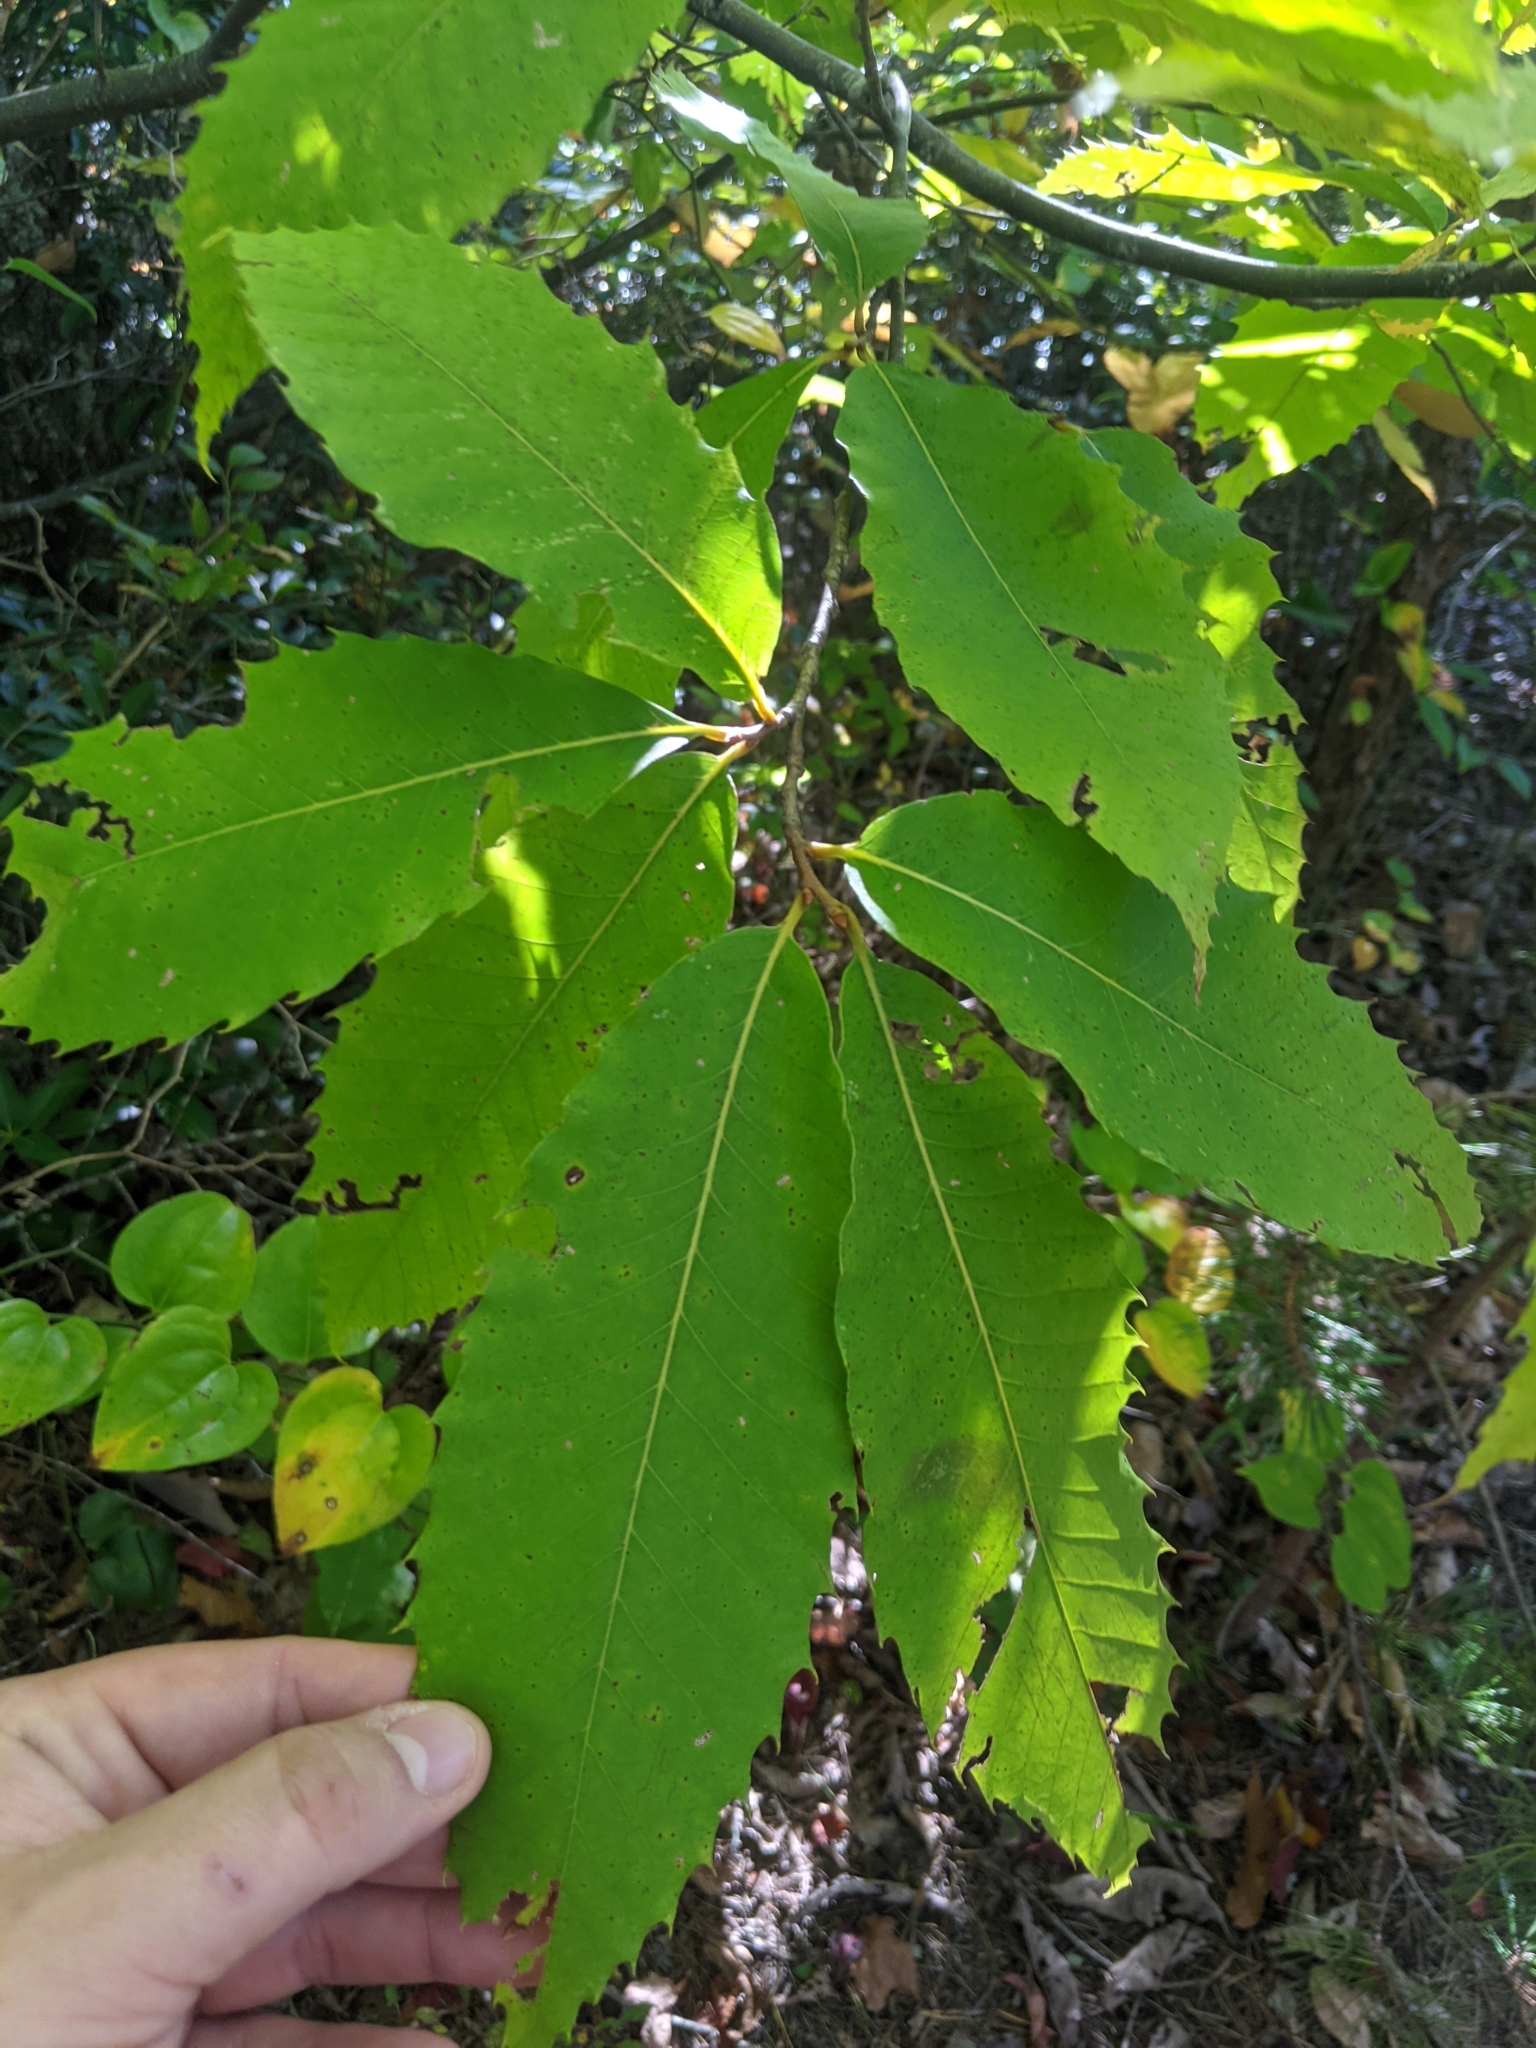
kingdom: Plantae
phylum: Tracheophyta
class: Magnoliopsida
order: Fagales
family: Fagaceae
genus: Castanea
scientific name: Castanea dentata
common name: American chestnut
